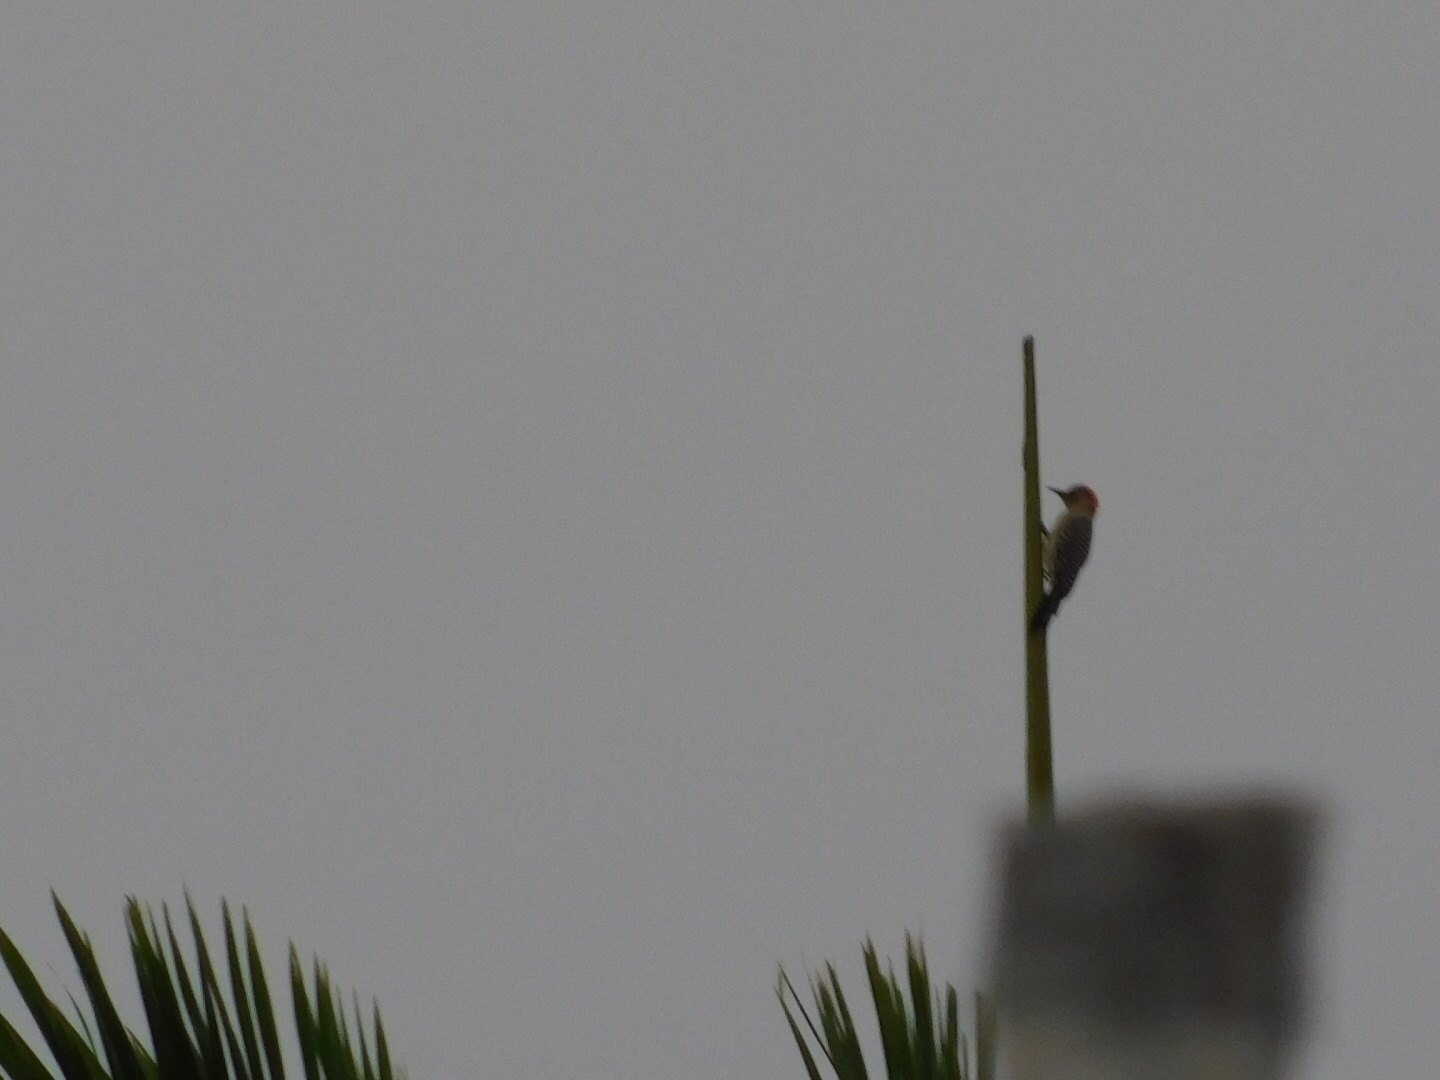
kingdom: Animalia
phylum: Chordata
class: Aves
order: Piciformes
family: Picidae
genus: Melanerpes
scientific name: Melanerpes carolinus
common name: Red-bellied woodpecker
